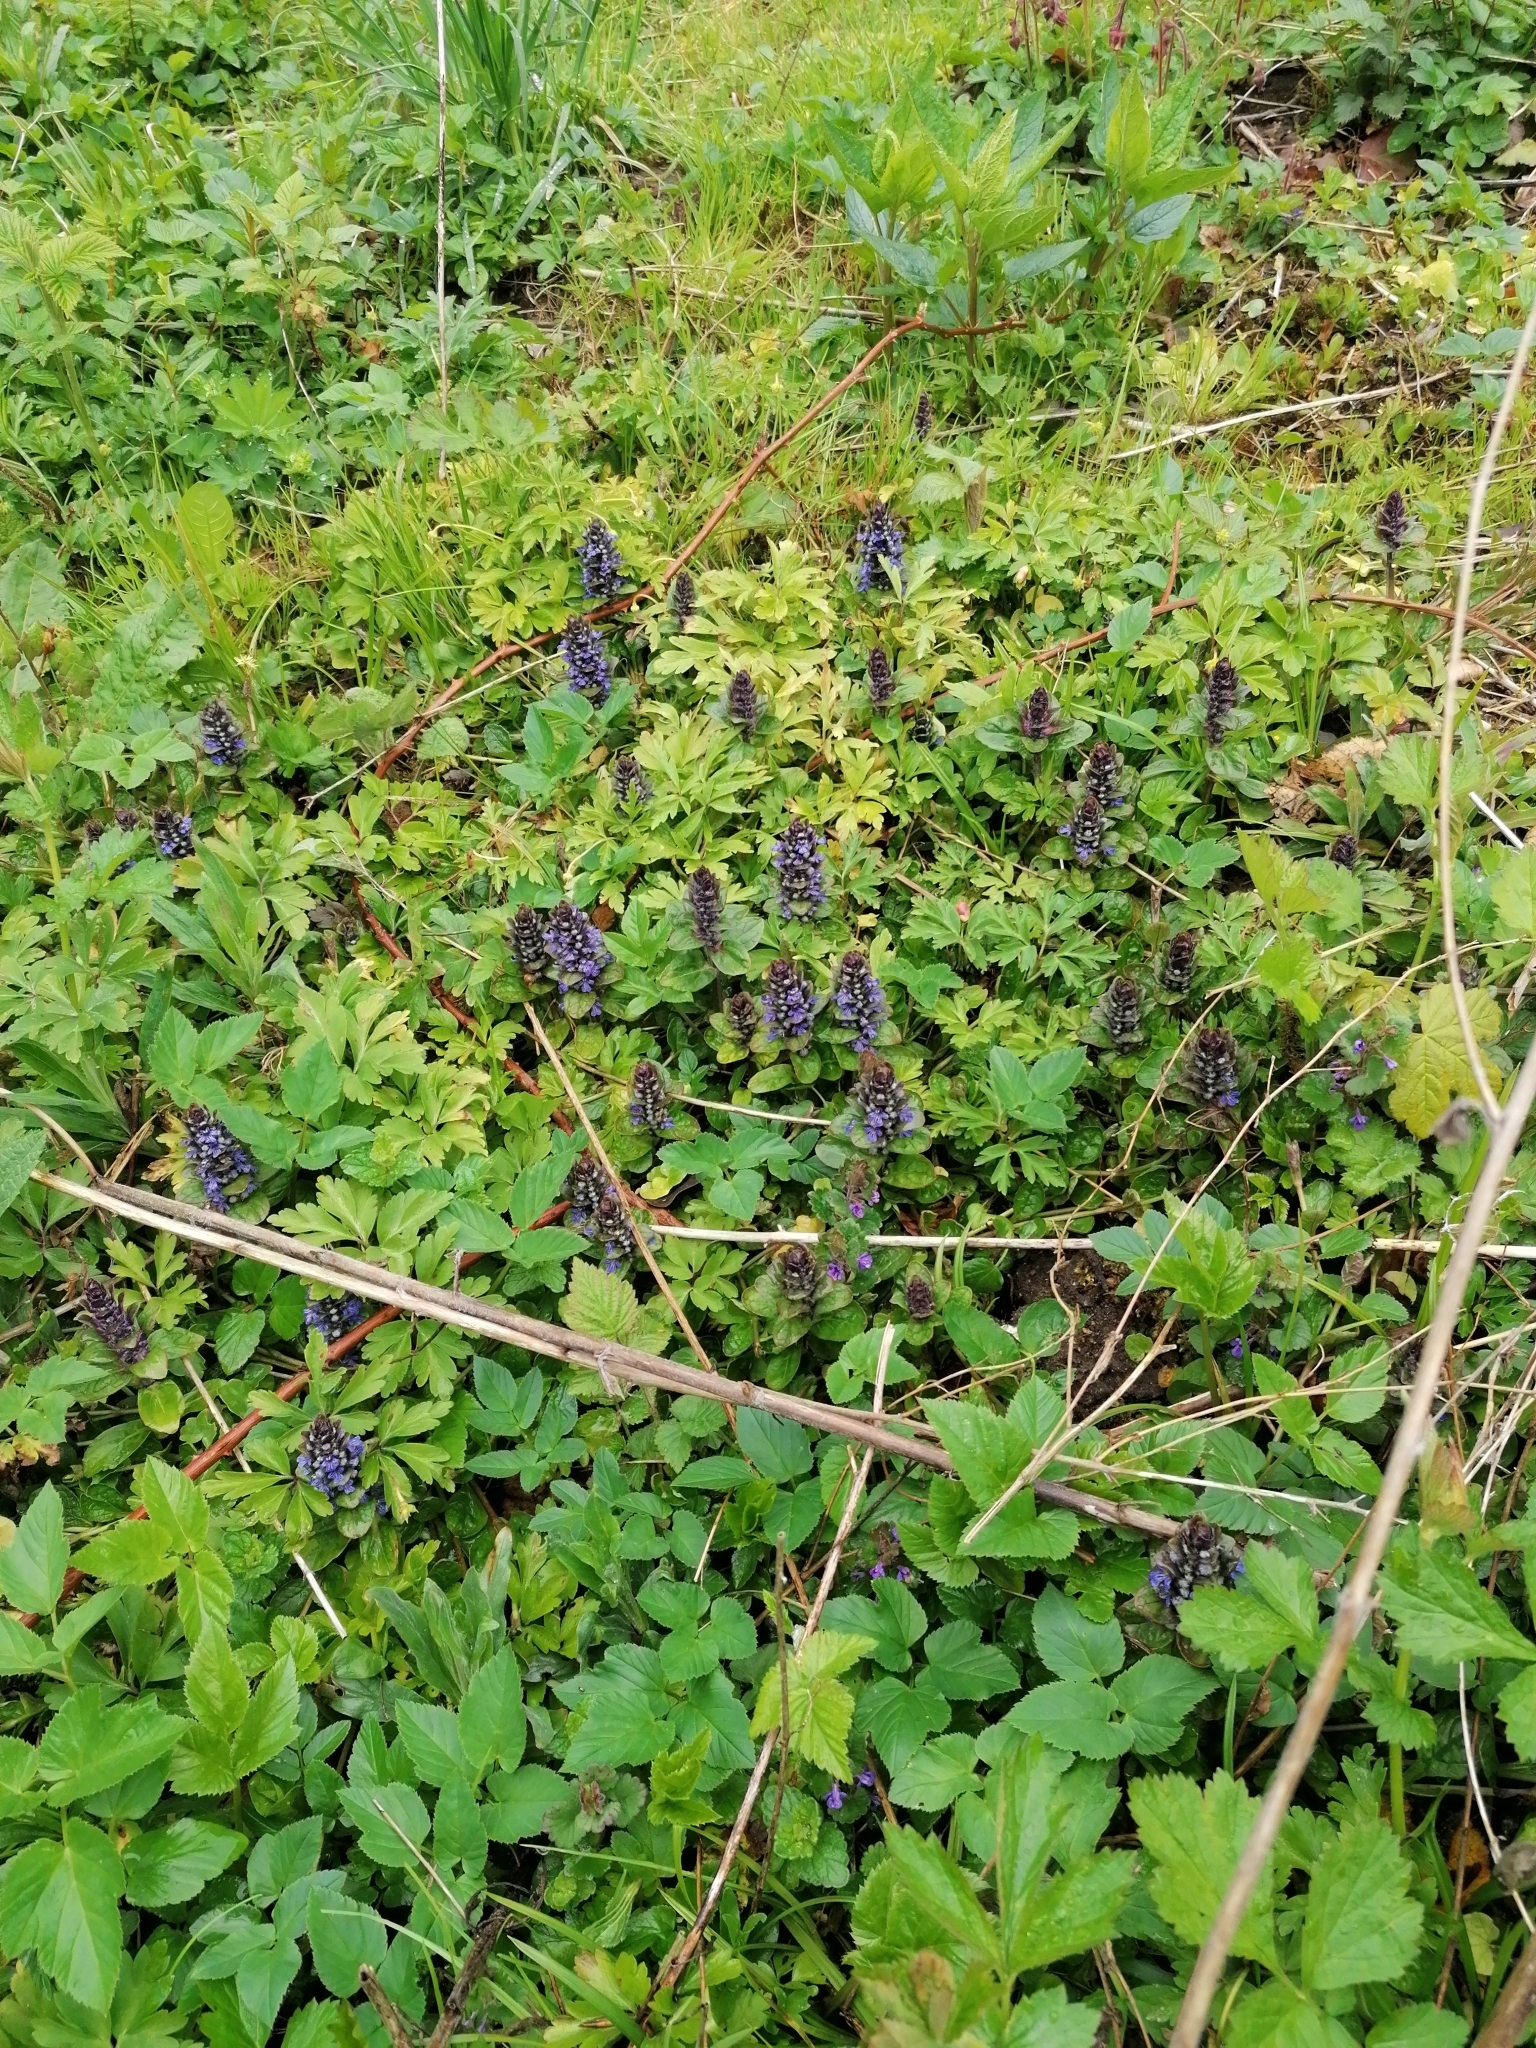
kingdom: Plantae
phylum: Tracheophyta
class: Magnoliopsida
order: Lamiales
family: Lamiaceae
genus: Ajuga
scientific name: Ajuga reptans
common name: Bugle
